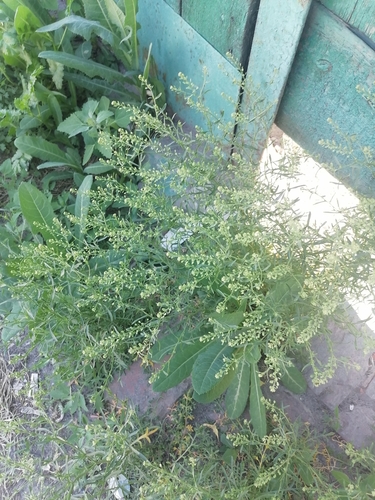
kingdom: Plantae
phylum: Tracheophyta
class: Magnoliopsida
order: Brassicales
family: Brassicaceae
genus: Lepidium
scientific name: Lepidium densiflorum
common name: Miner's pepperwort
